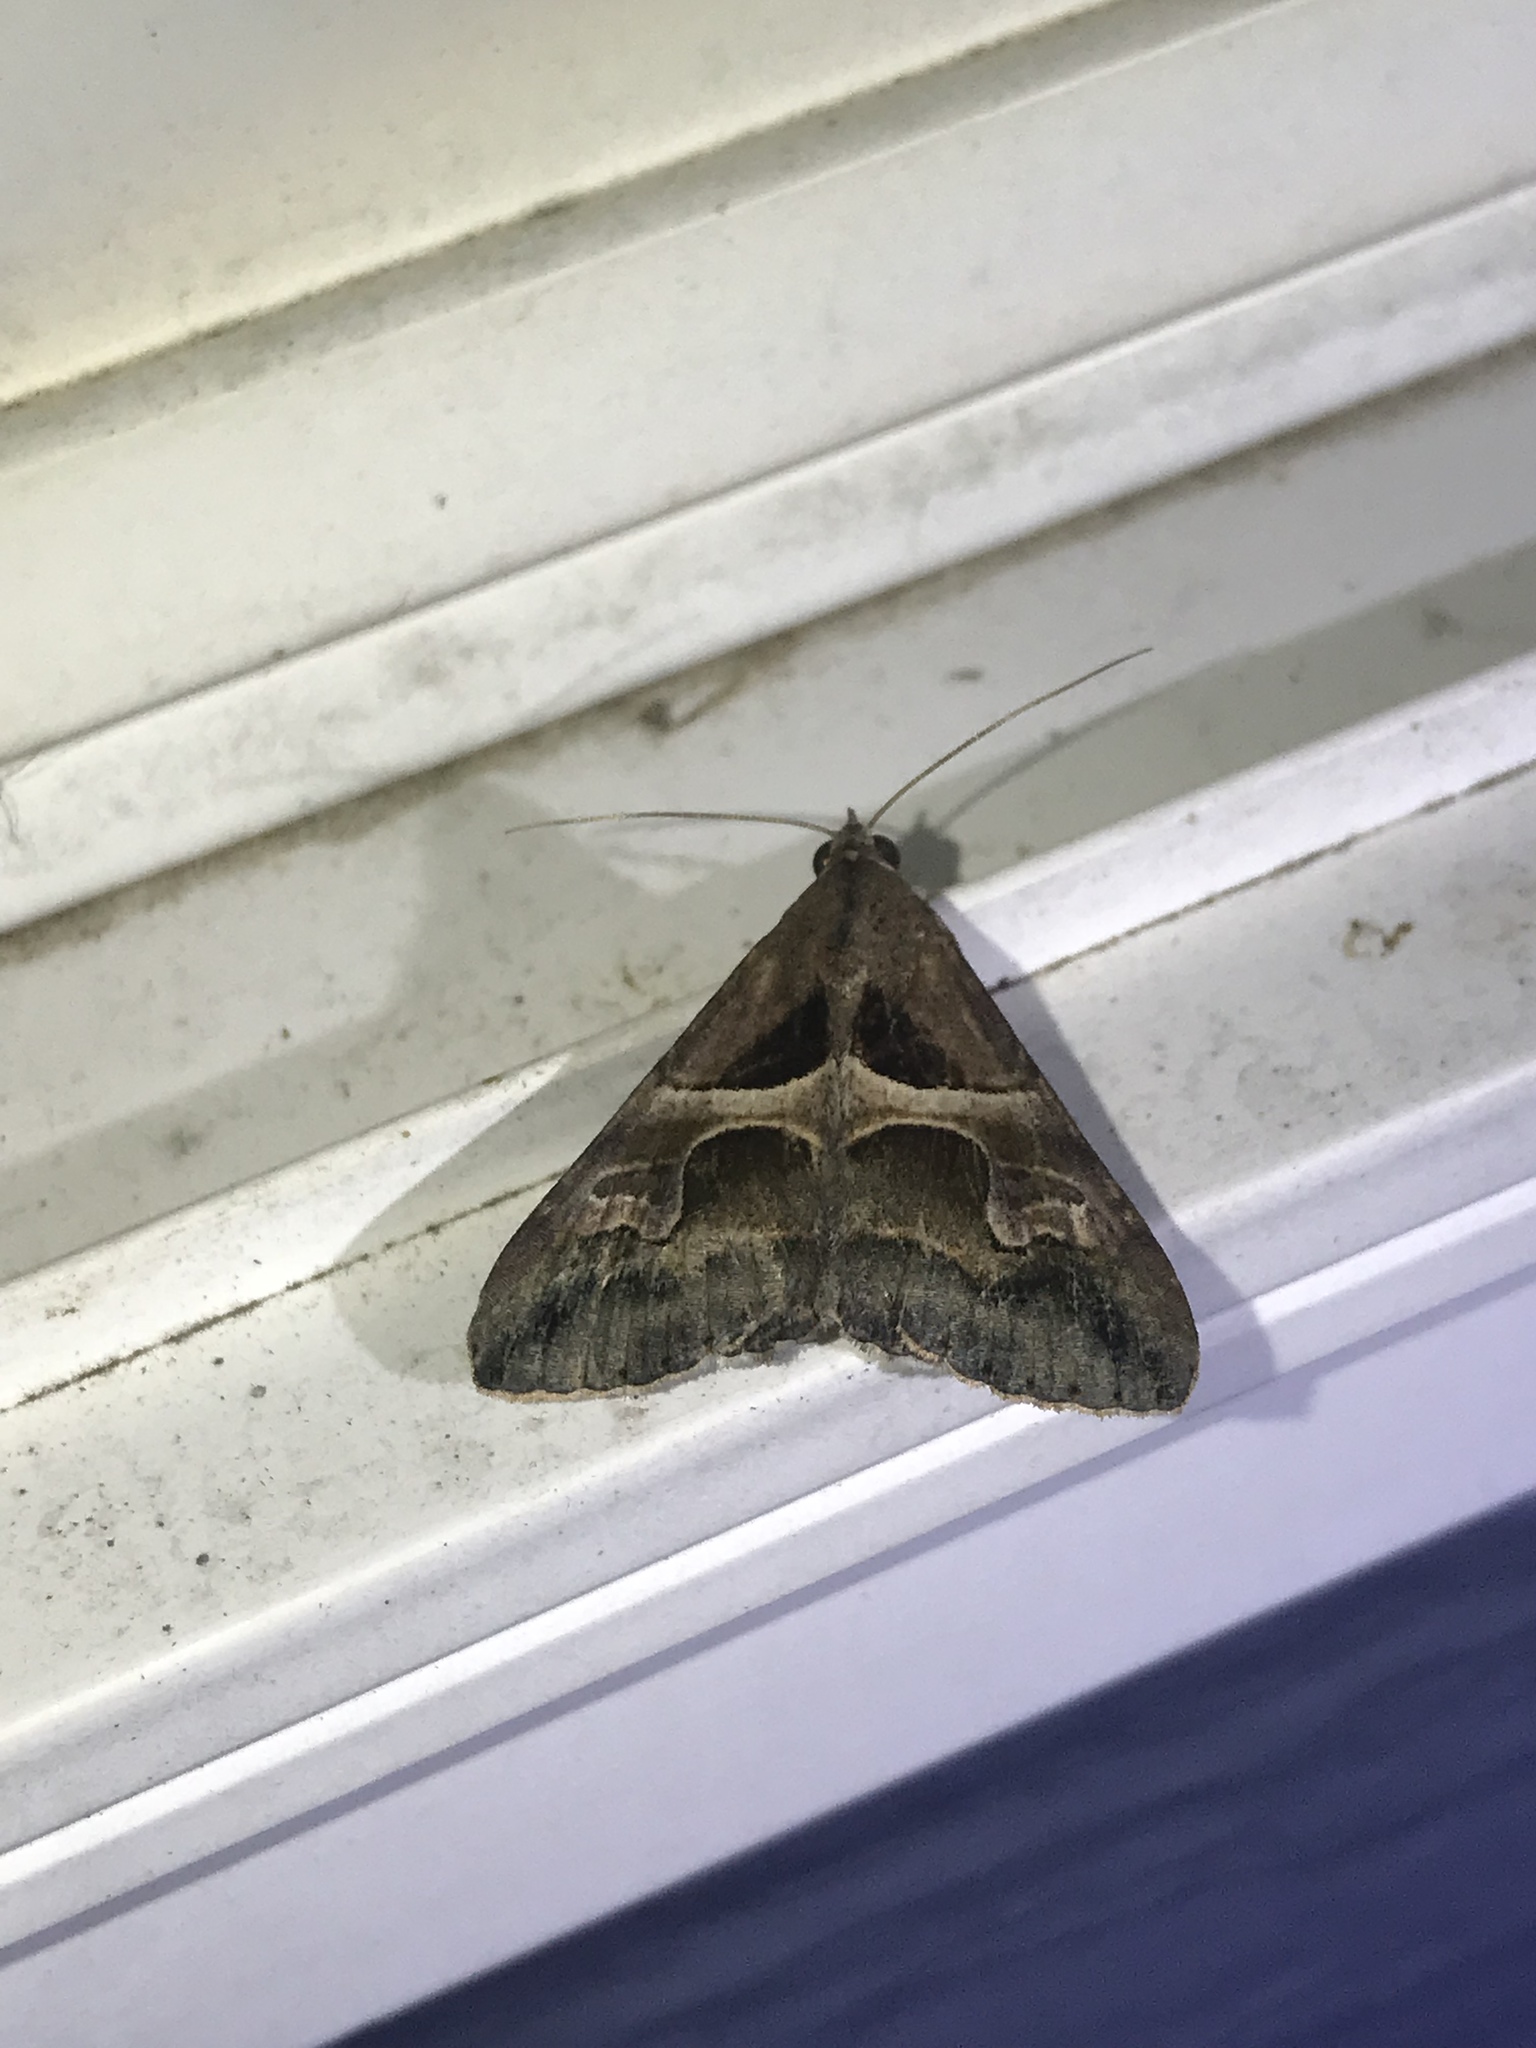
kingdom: Animalia
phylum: Arthropoda
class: Insecta
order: Lepidoptera
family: Erebidae
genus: Melipotis
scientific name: Melipotis cellaris
